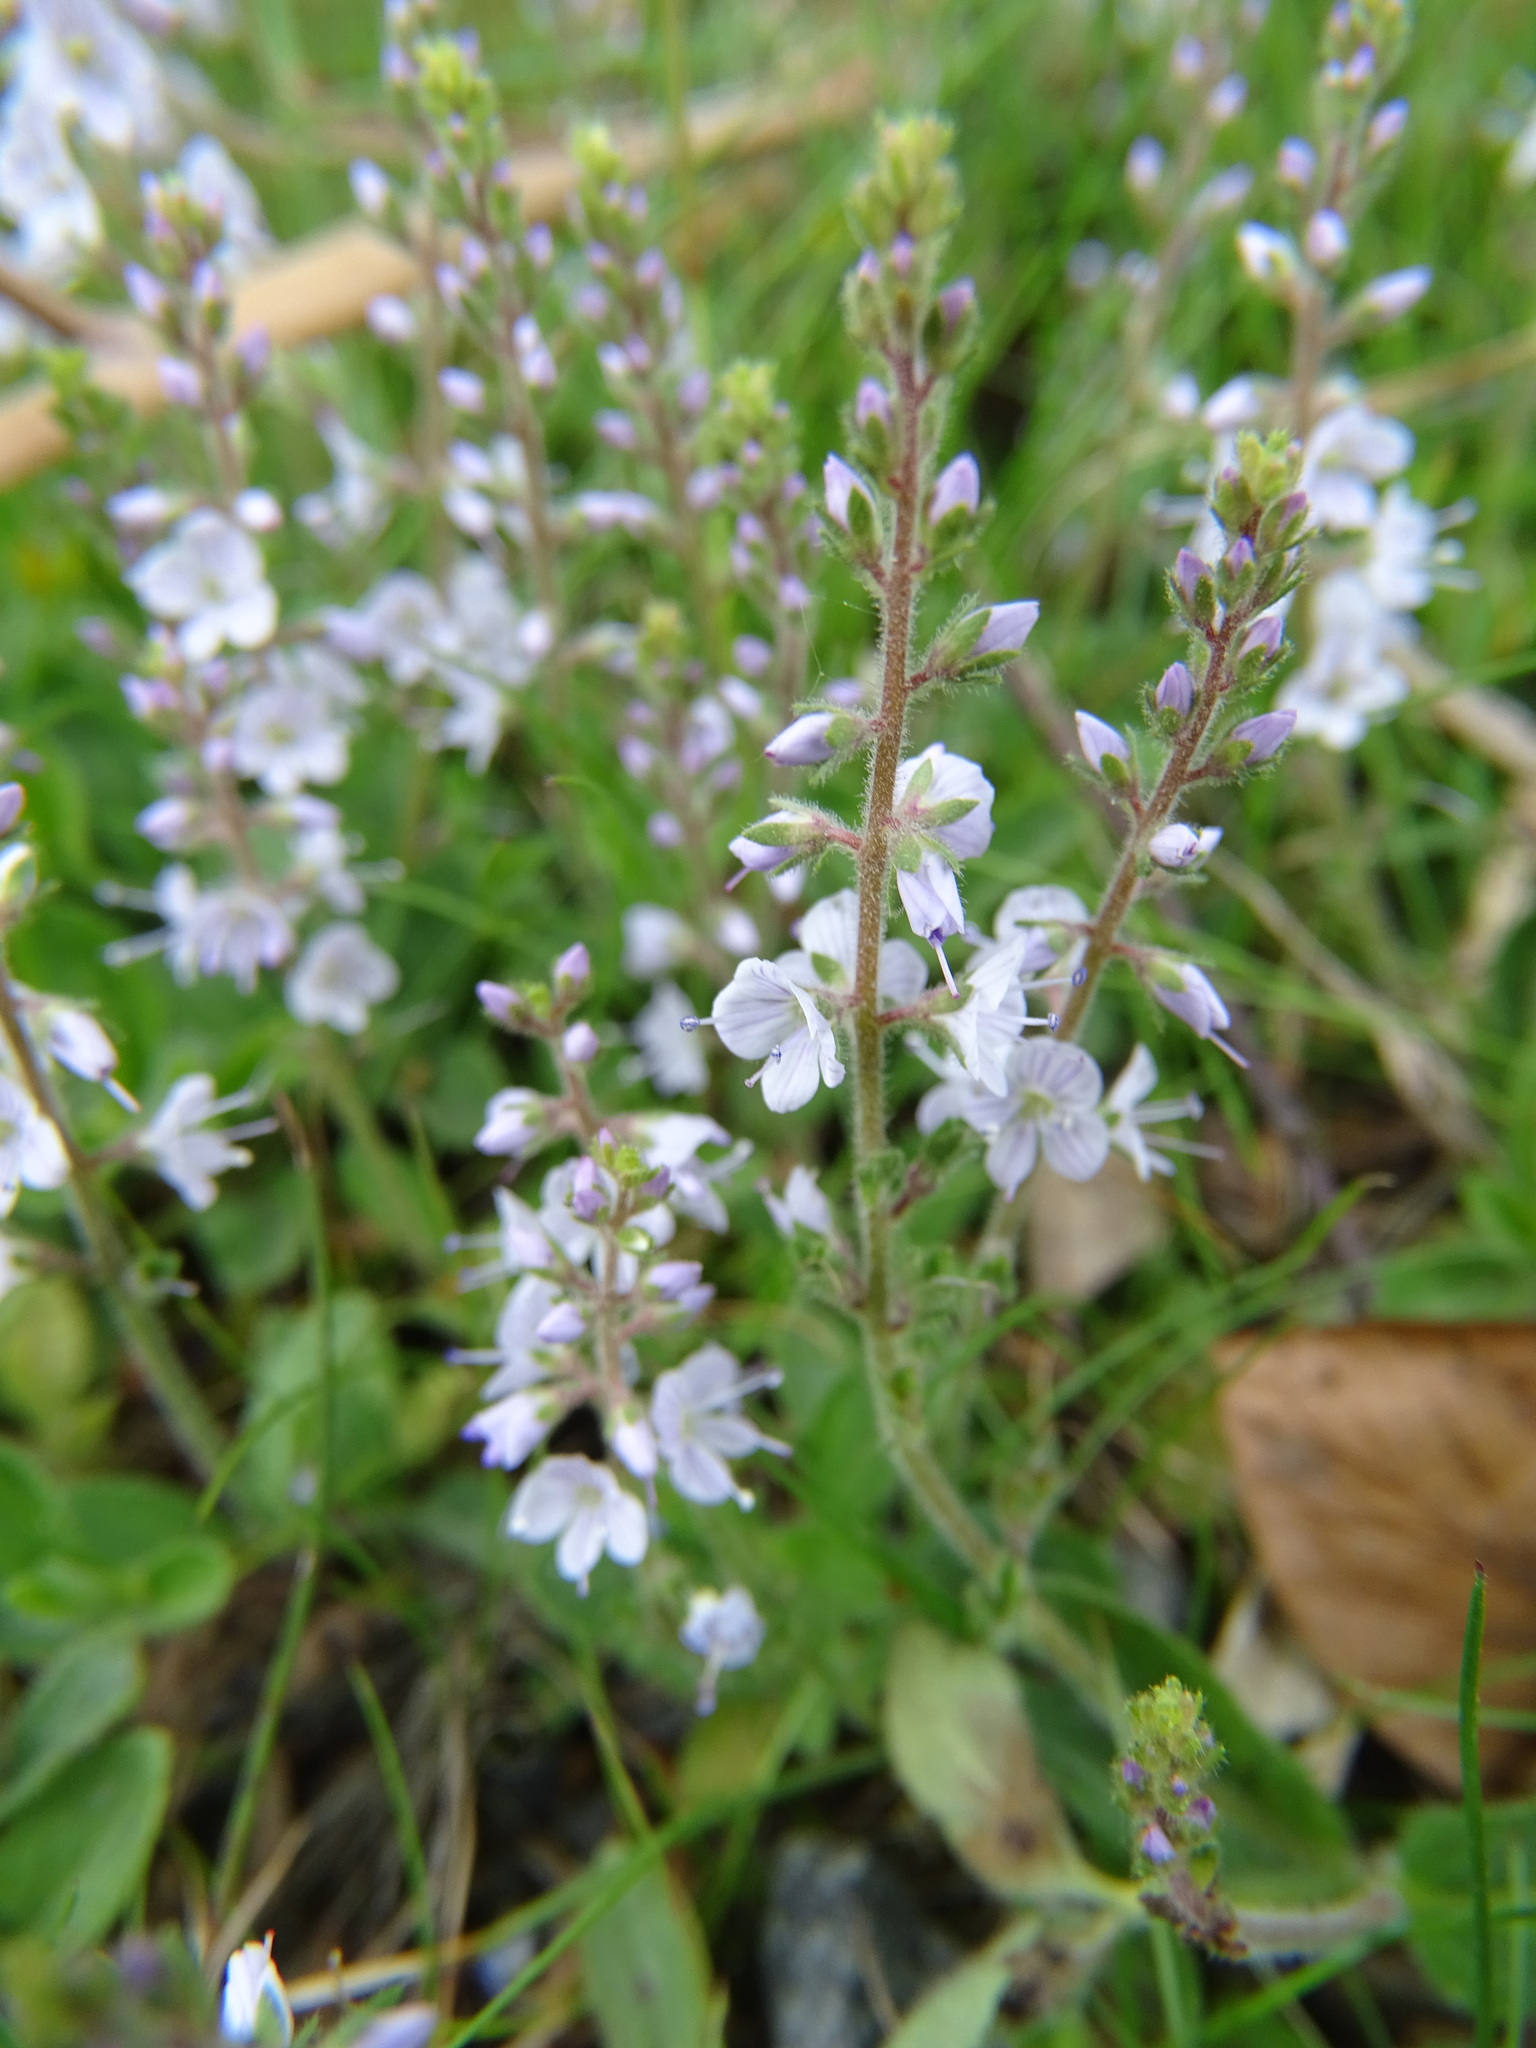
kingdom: Plantae
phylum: Tracheophyta
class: Magnoliopsida
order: Lamiales
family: Plantaginaceae
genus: Veronica
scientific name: Veronica officinalis
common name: Common speedwell
